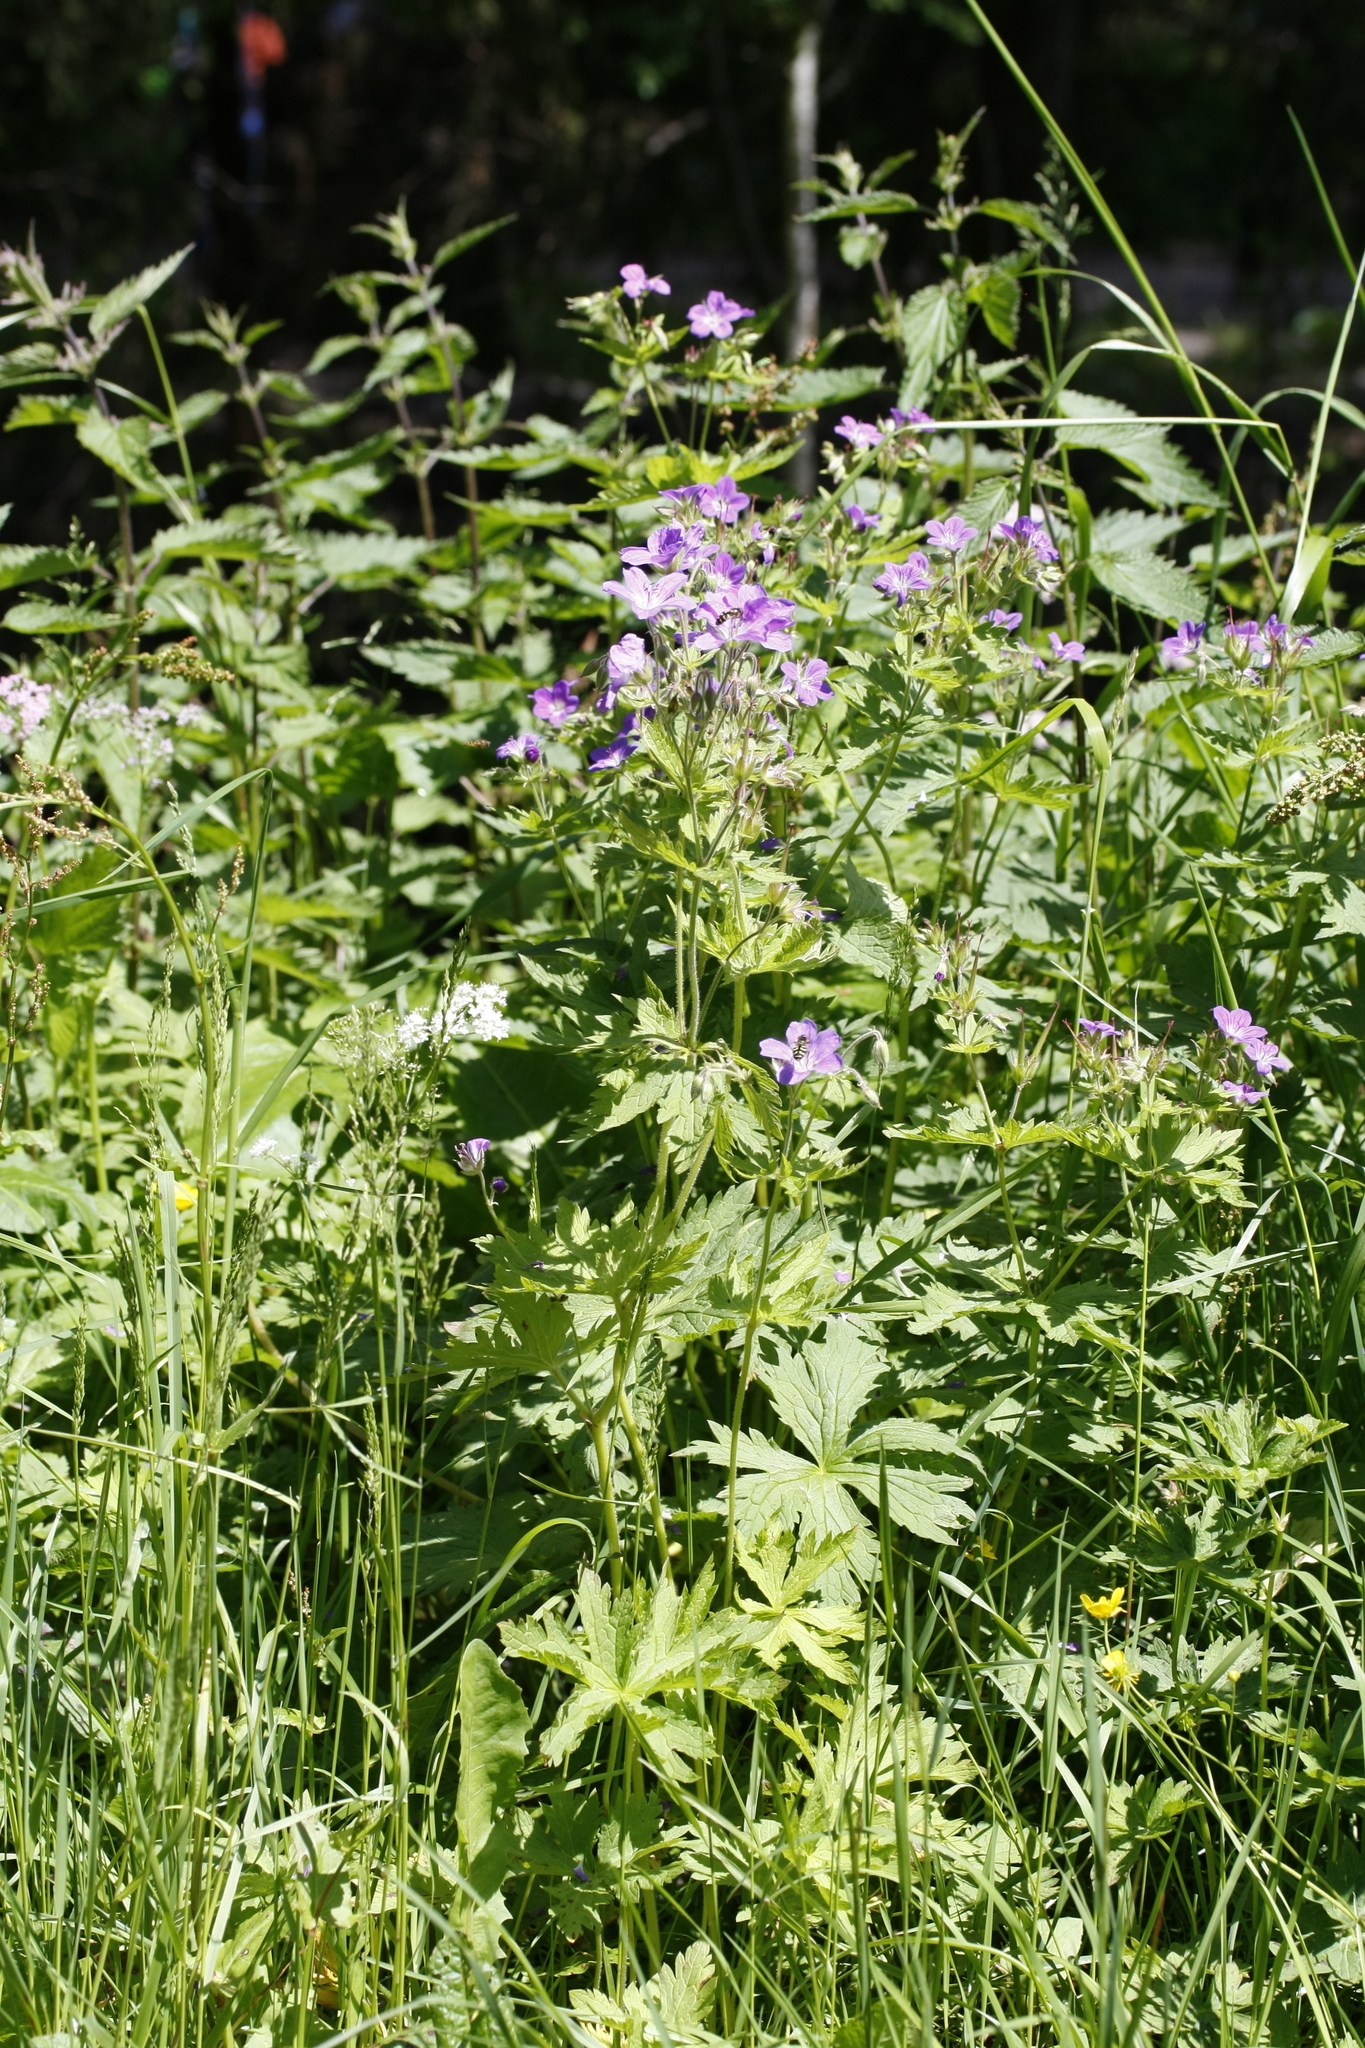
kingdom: Plantae
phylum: Tracheophyta
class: Magnoliopsida
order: Geraniales
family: Geraniaceae
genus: Geranium
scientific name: Geranium sylvaticum
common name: Wood crane's-bill
